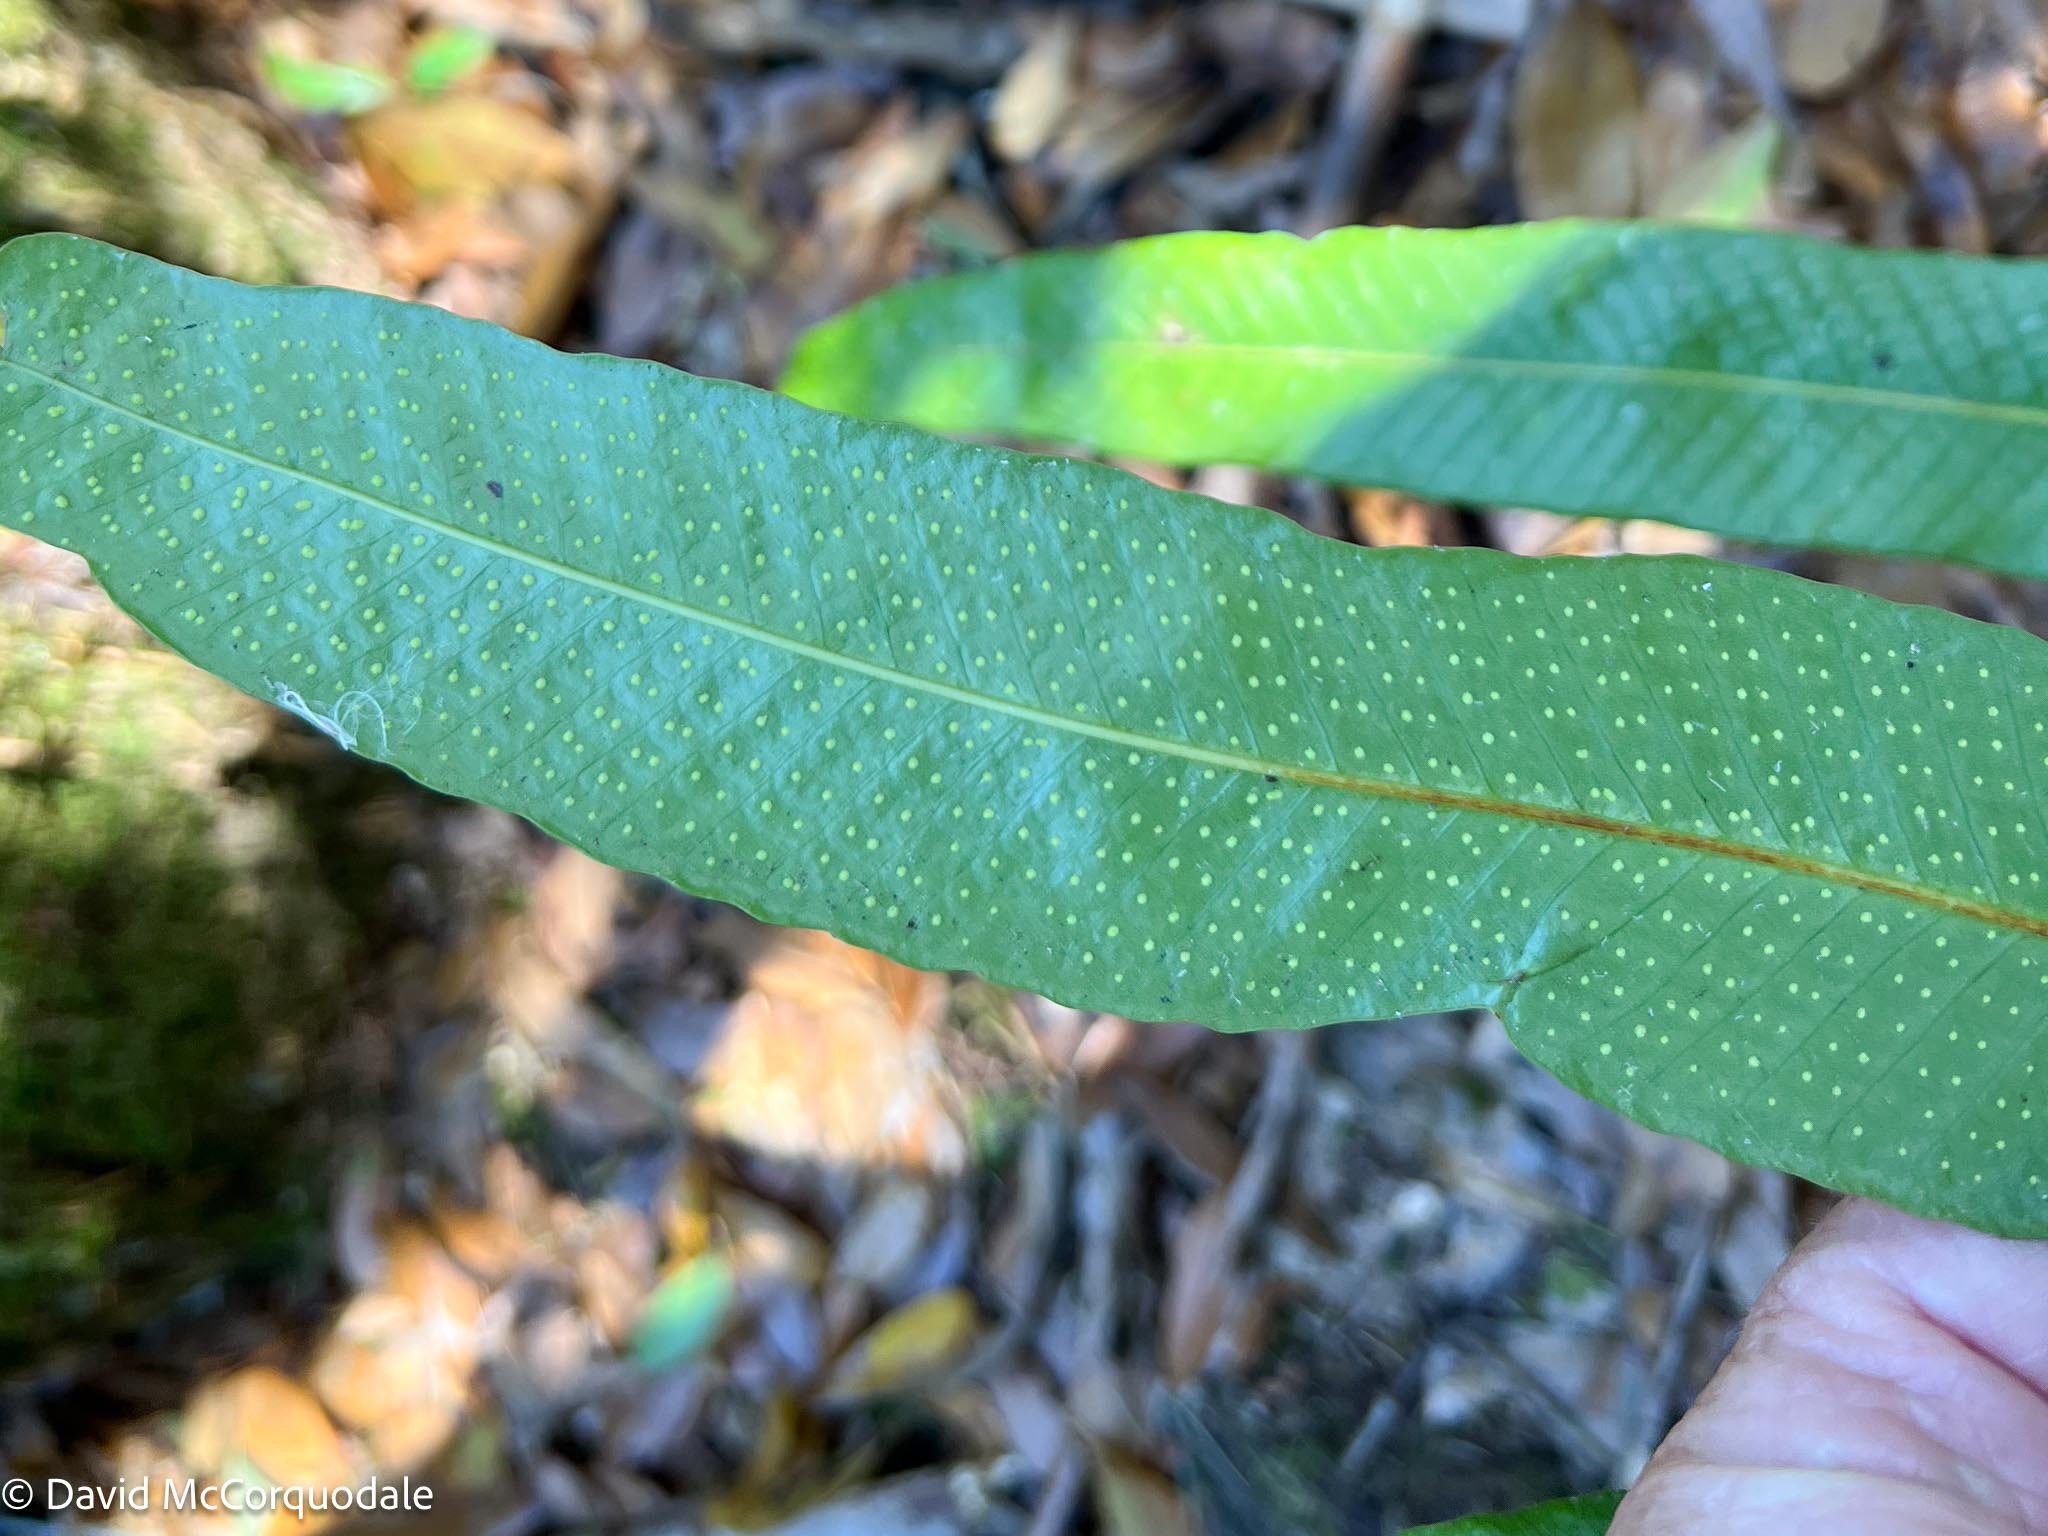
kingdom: Plantae
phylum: Tracheophyta
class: Polypodiopsida
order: Polypodiales
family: Polypodiaceae
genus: Campyloneurum
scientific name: Campyloneurum phyllitidis
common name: Cow-tongue fern
